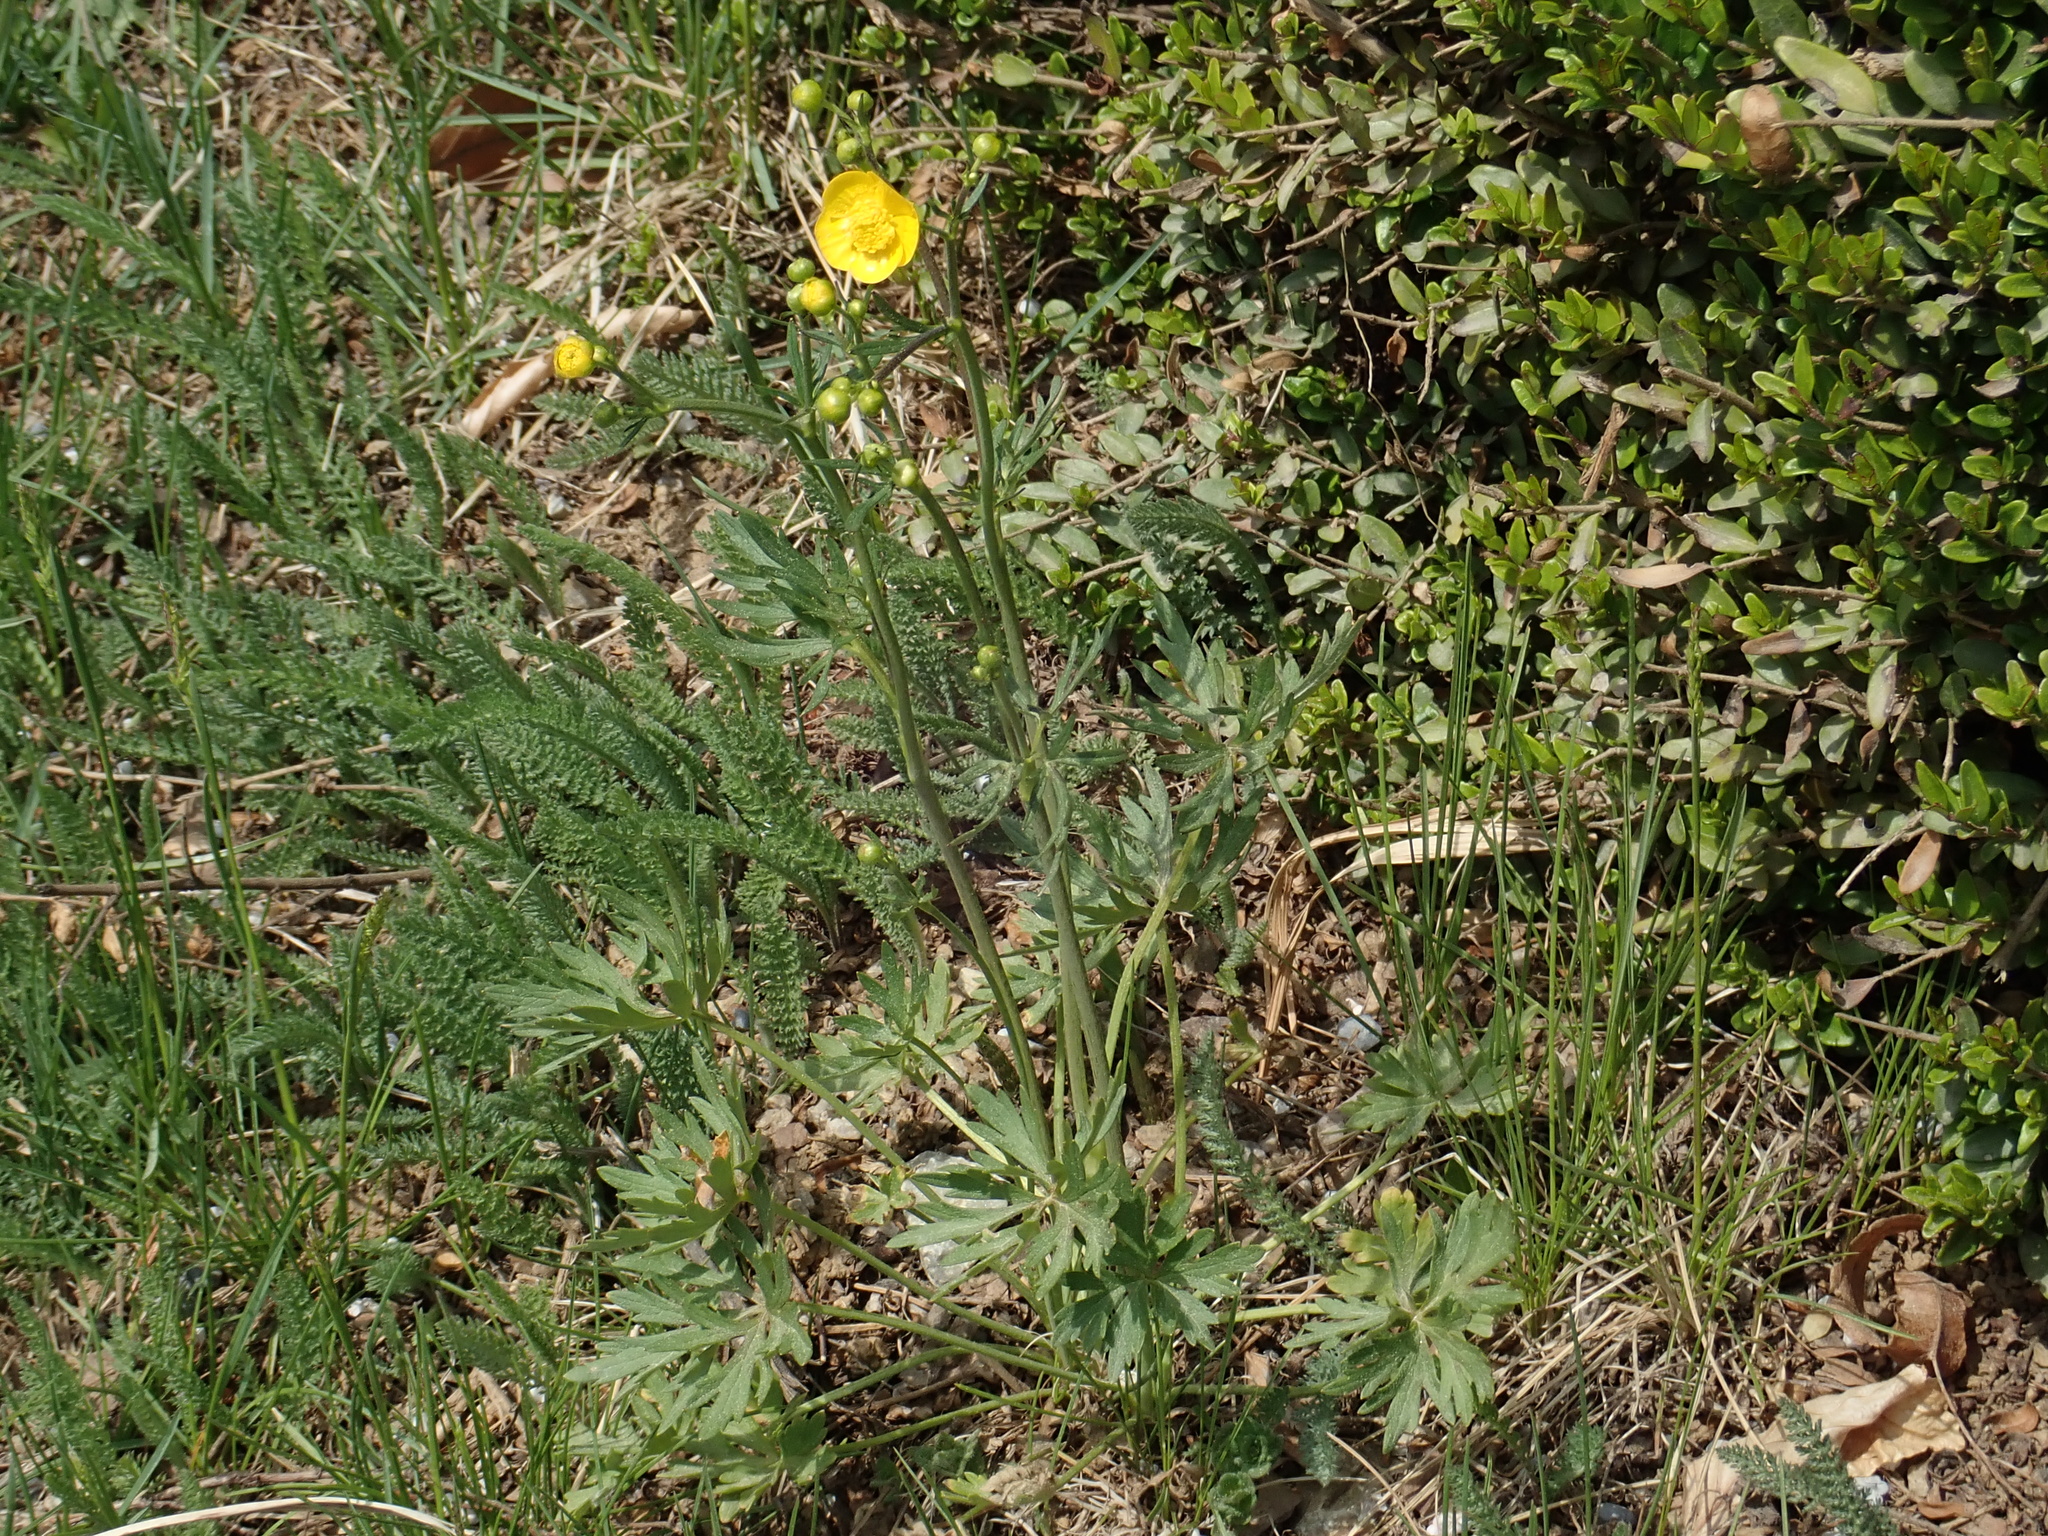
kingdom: Plantae
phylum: Tracheophyta
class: Magnoliopsida
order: Ranunculales
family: Ranunculaceae
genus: Ranunculus
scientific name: Ranunculus acris
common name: Meadow buttercup
